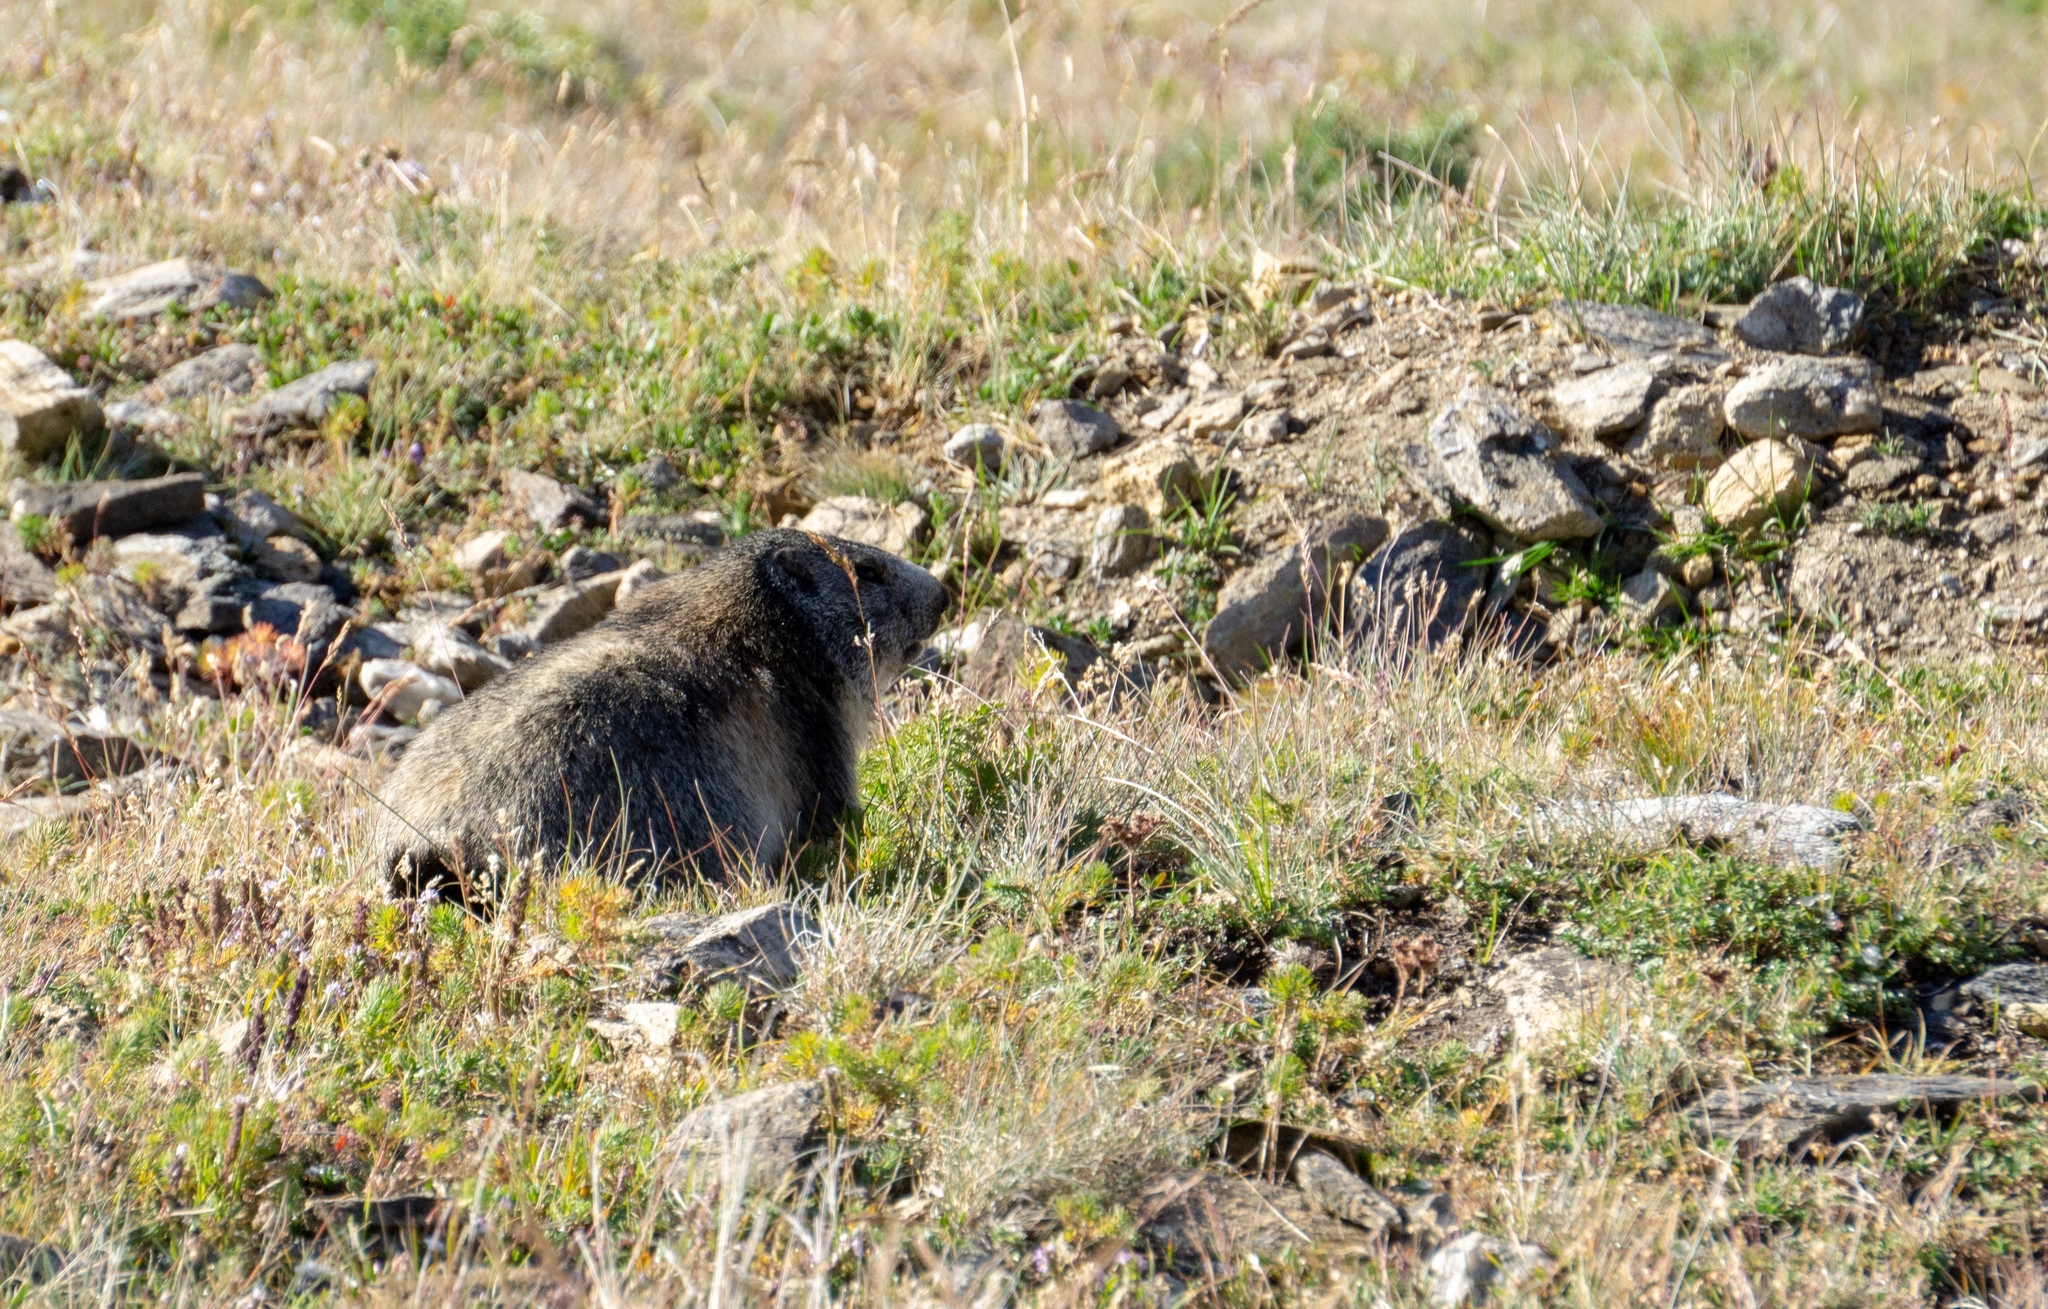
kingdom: Animalia
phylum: Chordata
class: Mammalia
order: Rodentia
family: Sciuridae
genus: Marmota
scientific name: Marmota marmota
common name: Alpine marmot
